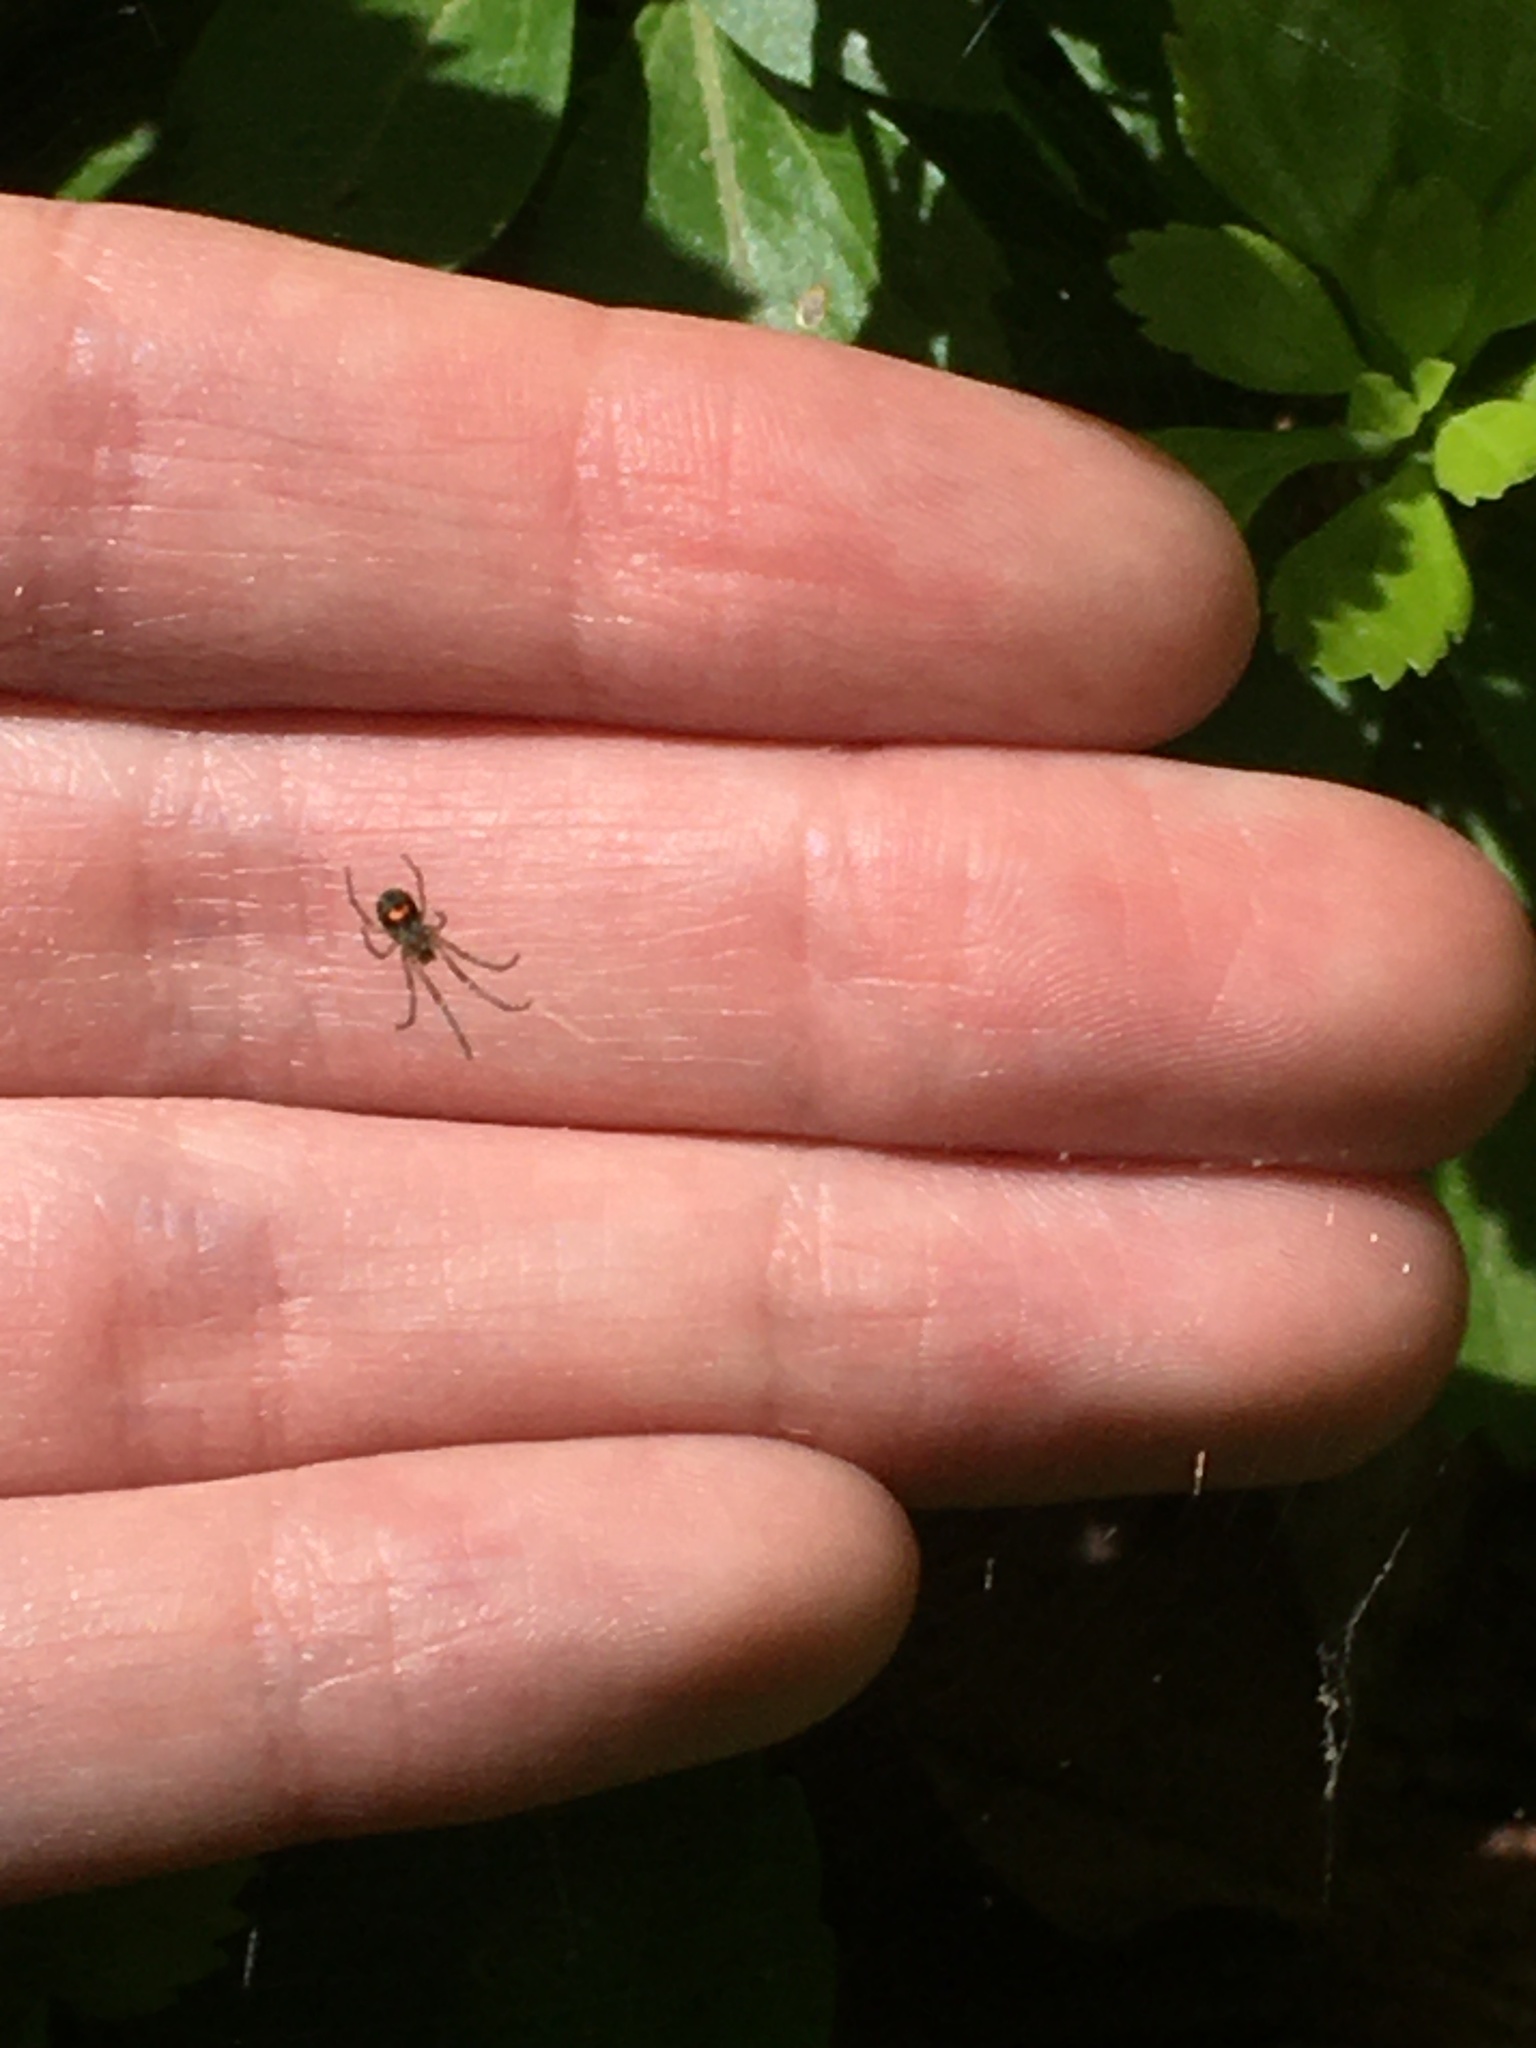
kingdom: Animalia
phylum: Arthropoda
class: Arachnida
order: Araneae
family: Tetragnathidae
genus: Leucauge
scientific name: Leucauge venusta
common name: Longjawed orb weavers
